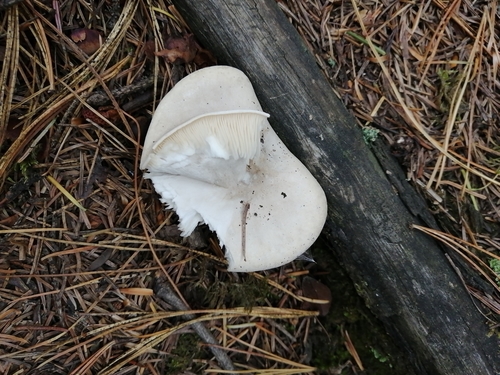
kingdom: Fungi
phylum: Basidiomycota
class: Agaricomycetes
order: Agaricales
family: Tricholomataceae
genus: Clitocybe
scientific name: Clitocybe nebularis
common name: Clouded agaric
